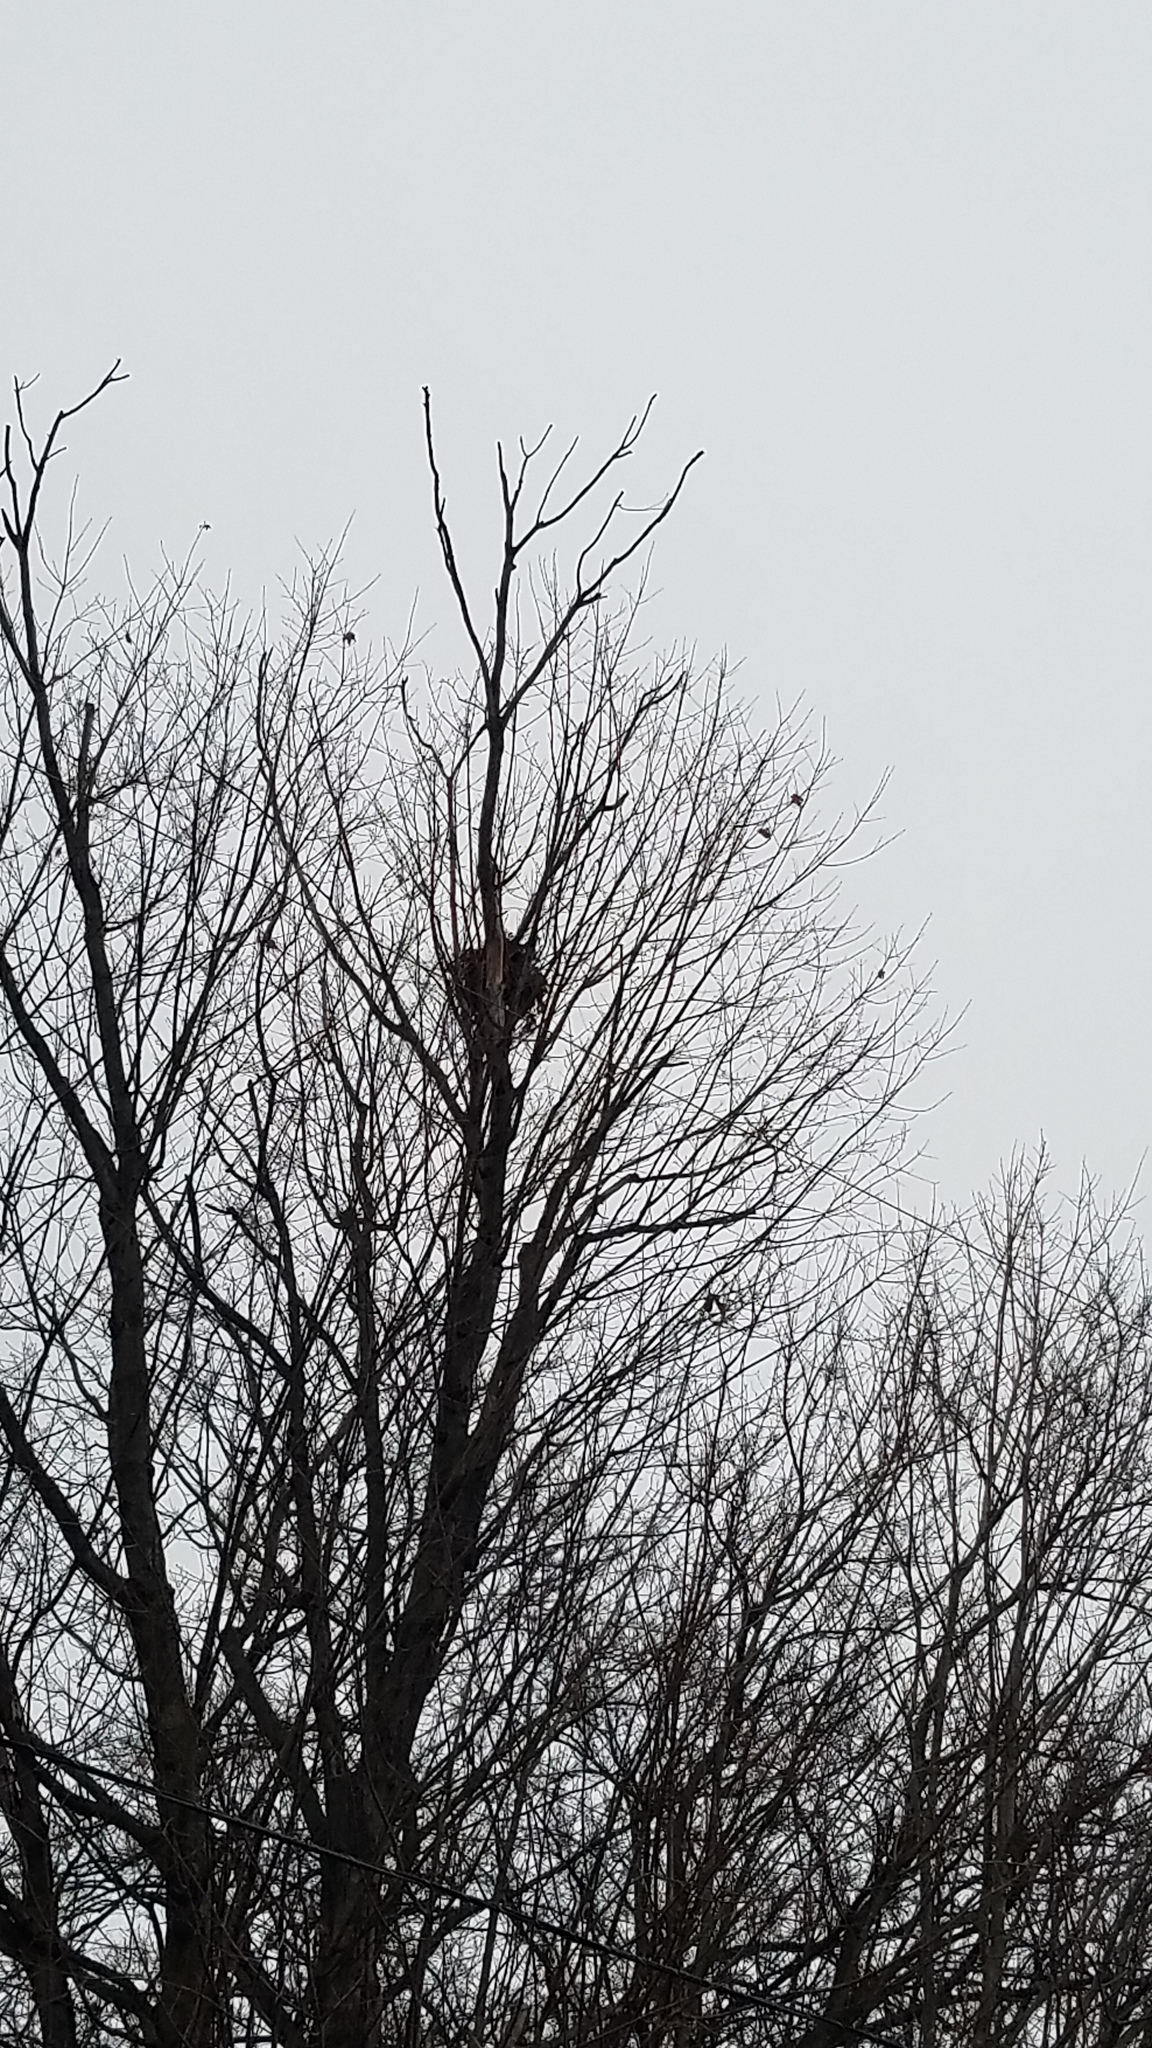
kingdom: Animalia
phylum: Chordata
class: Mammalia
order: Rodentia
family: Sciuridae
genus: Sciurus
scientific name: Sciurus carolinensis
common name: Eastern gray squirrel
